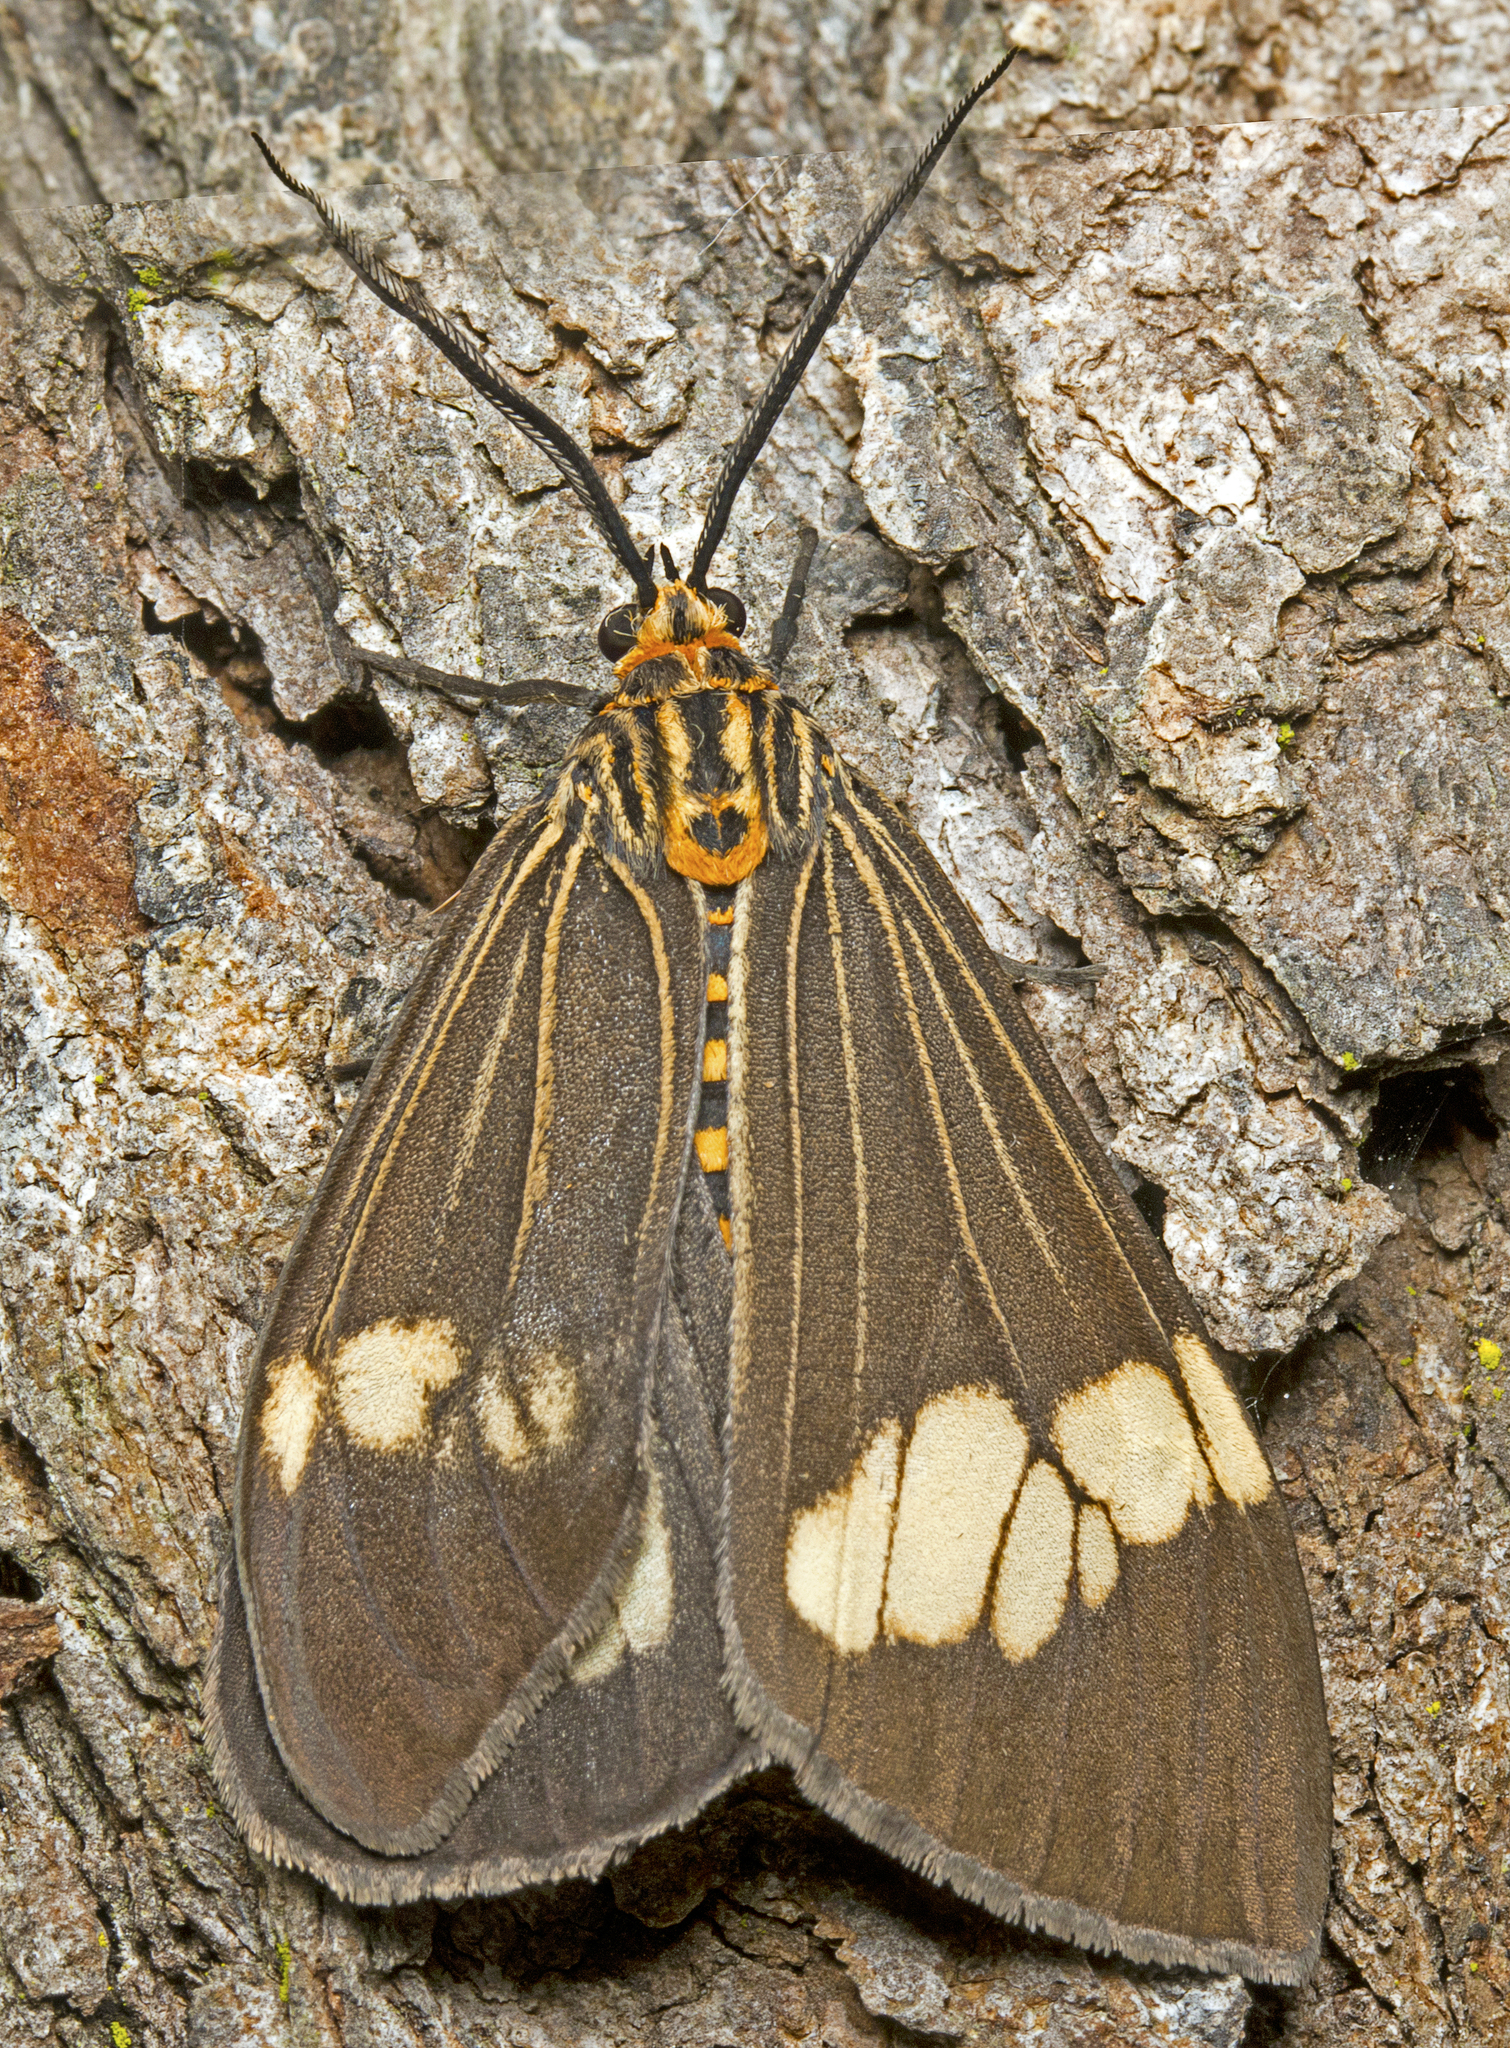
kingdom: Animalia
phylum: Arthropoda
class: Insecta
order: Lepidoptera
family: Erebidae
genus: Nyctemera
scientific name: Nyctemera baulus
